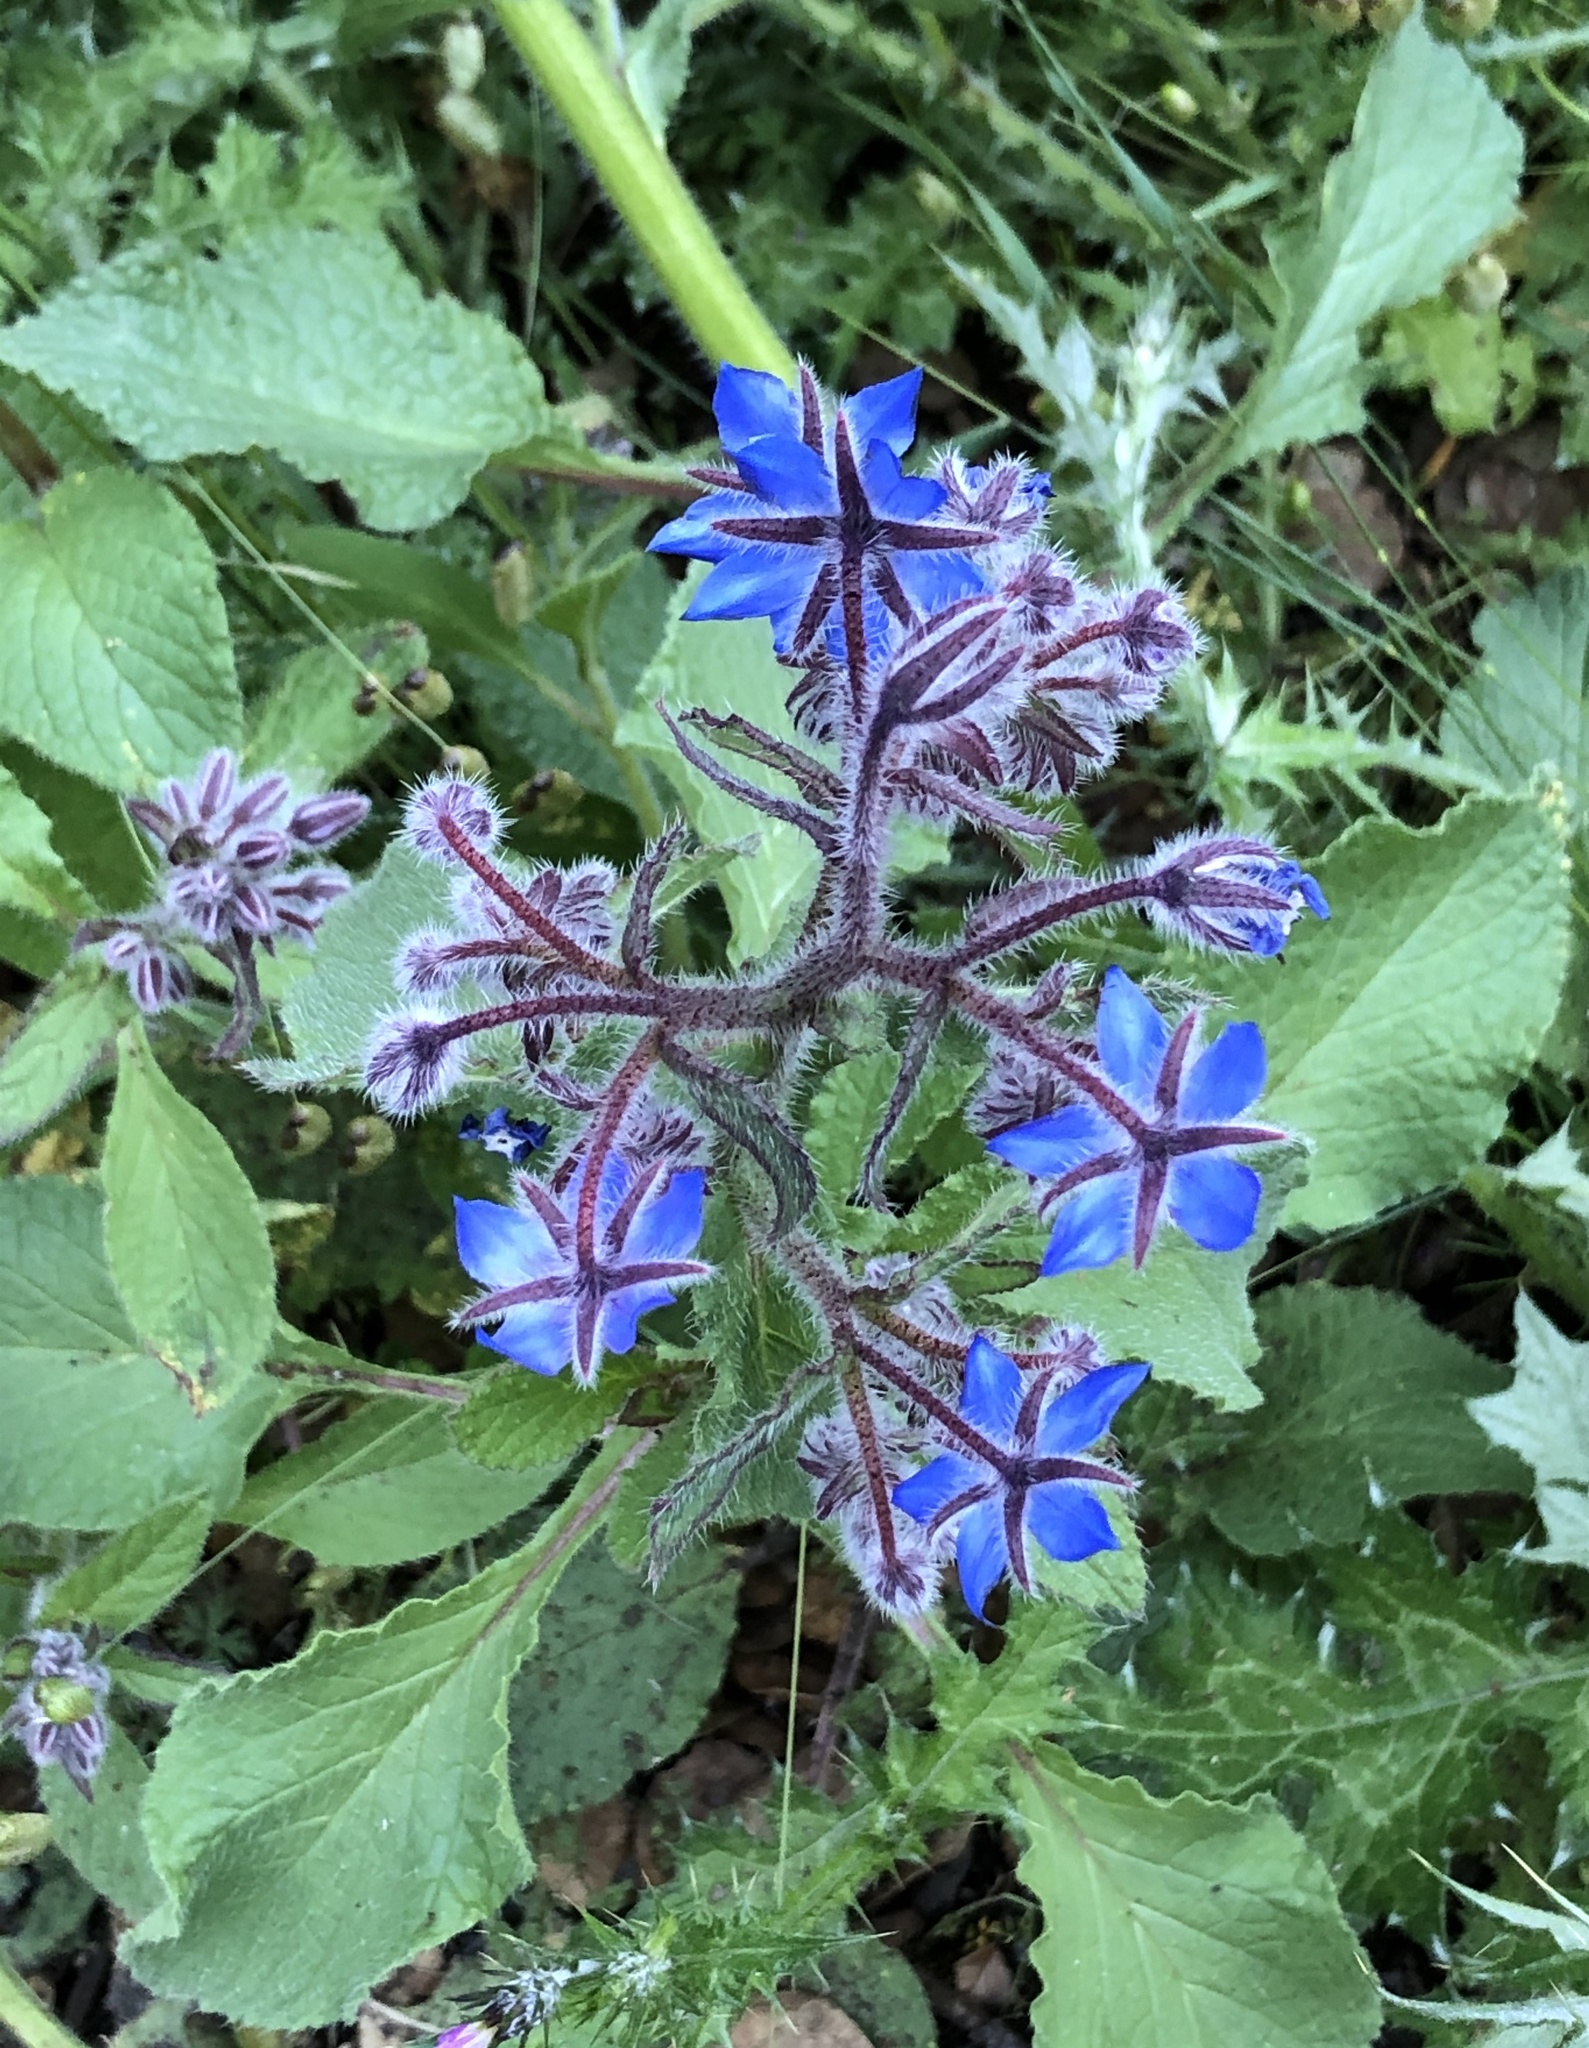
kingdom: Plantae
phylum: Tracheophyta
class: Magnoliopsida
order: Boraginales
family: Boraginaceae
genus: Borago
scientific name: Borago officinalis
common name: Borage
